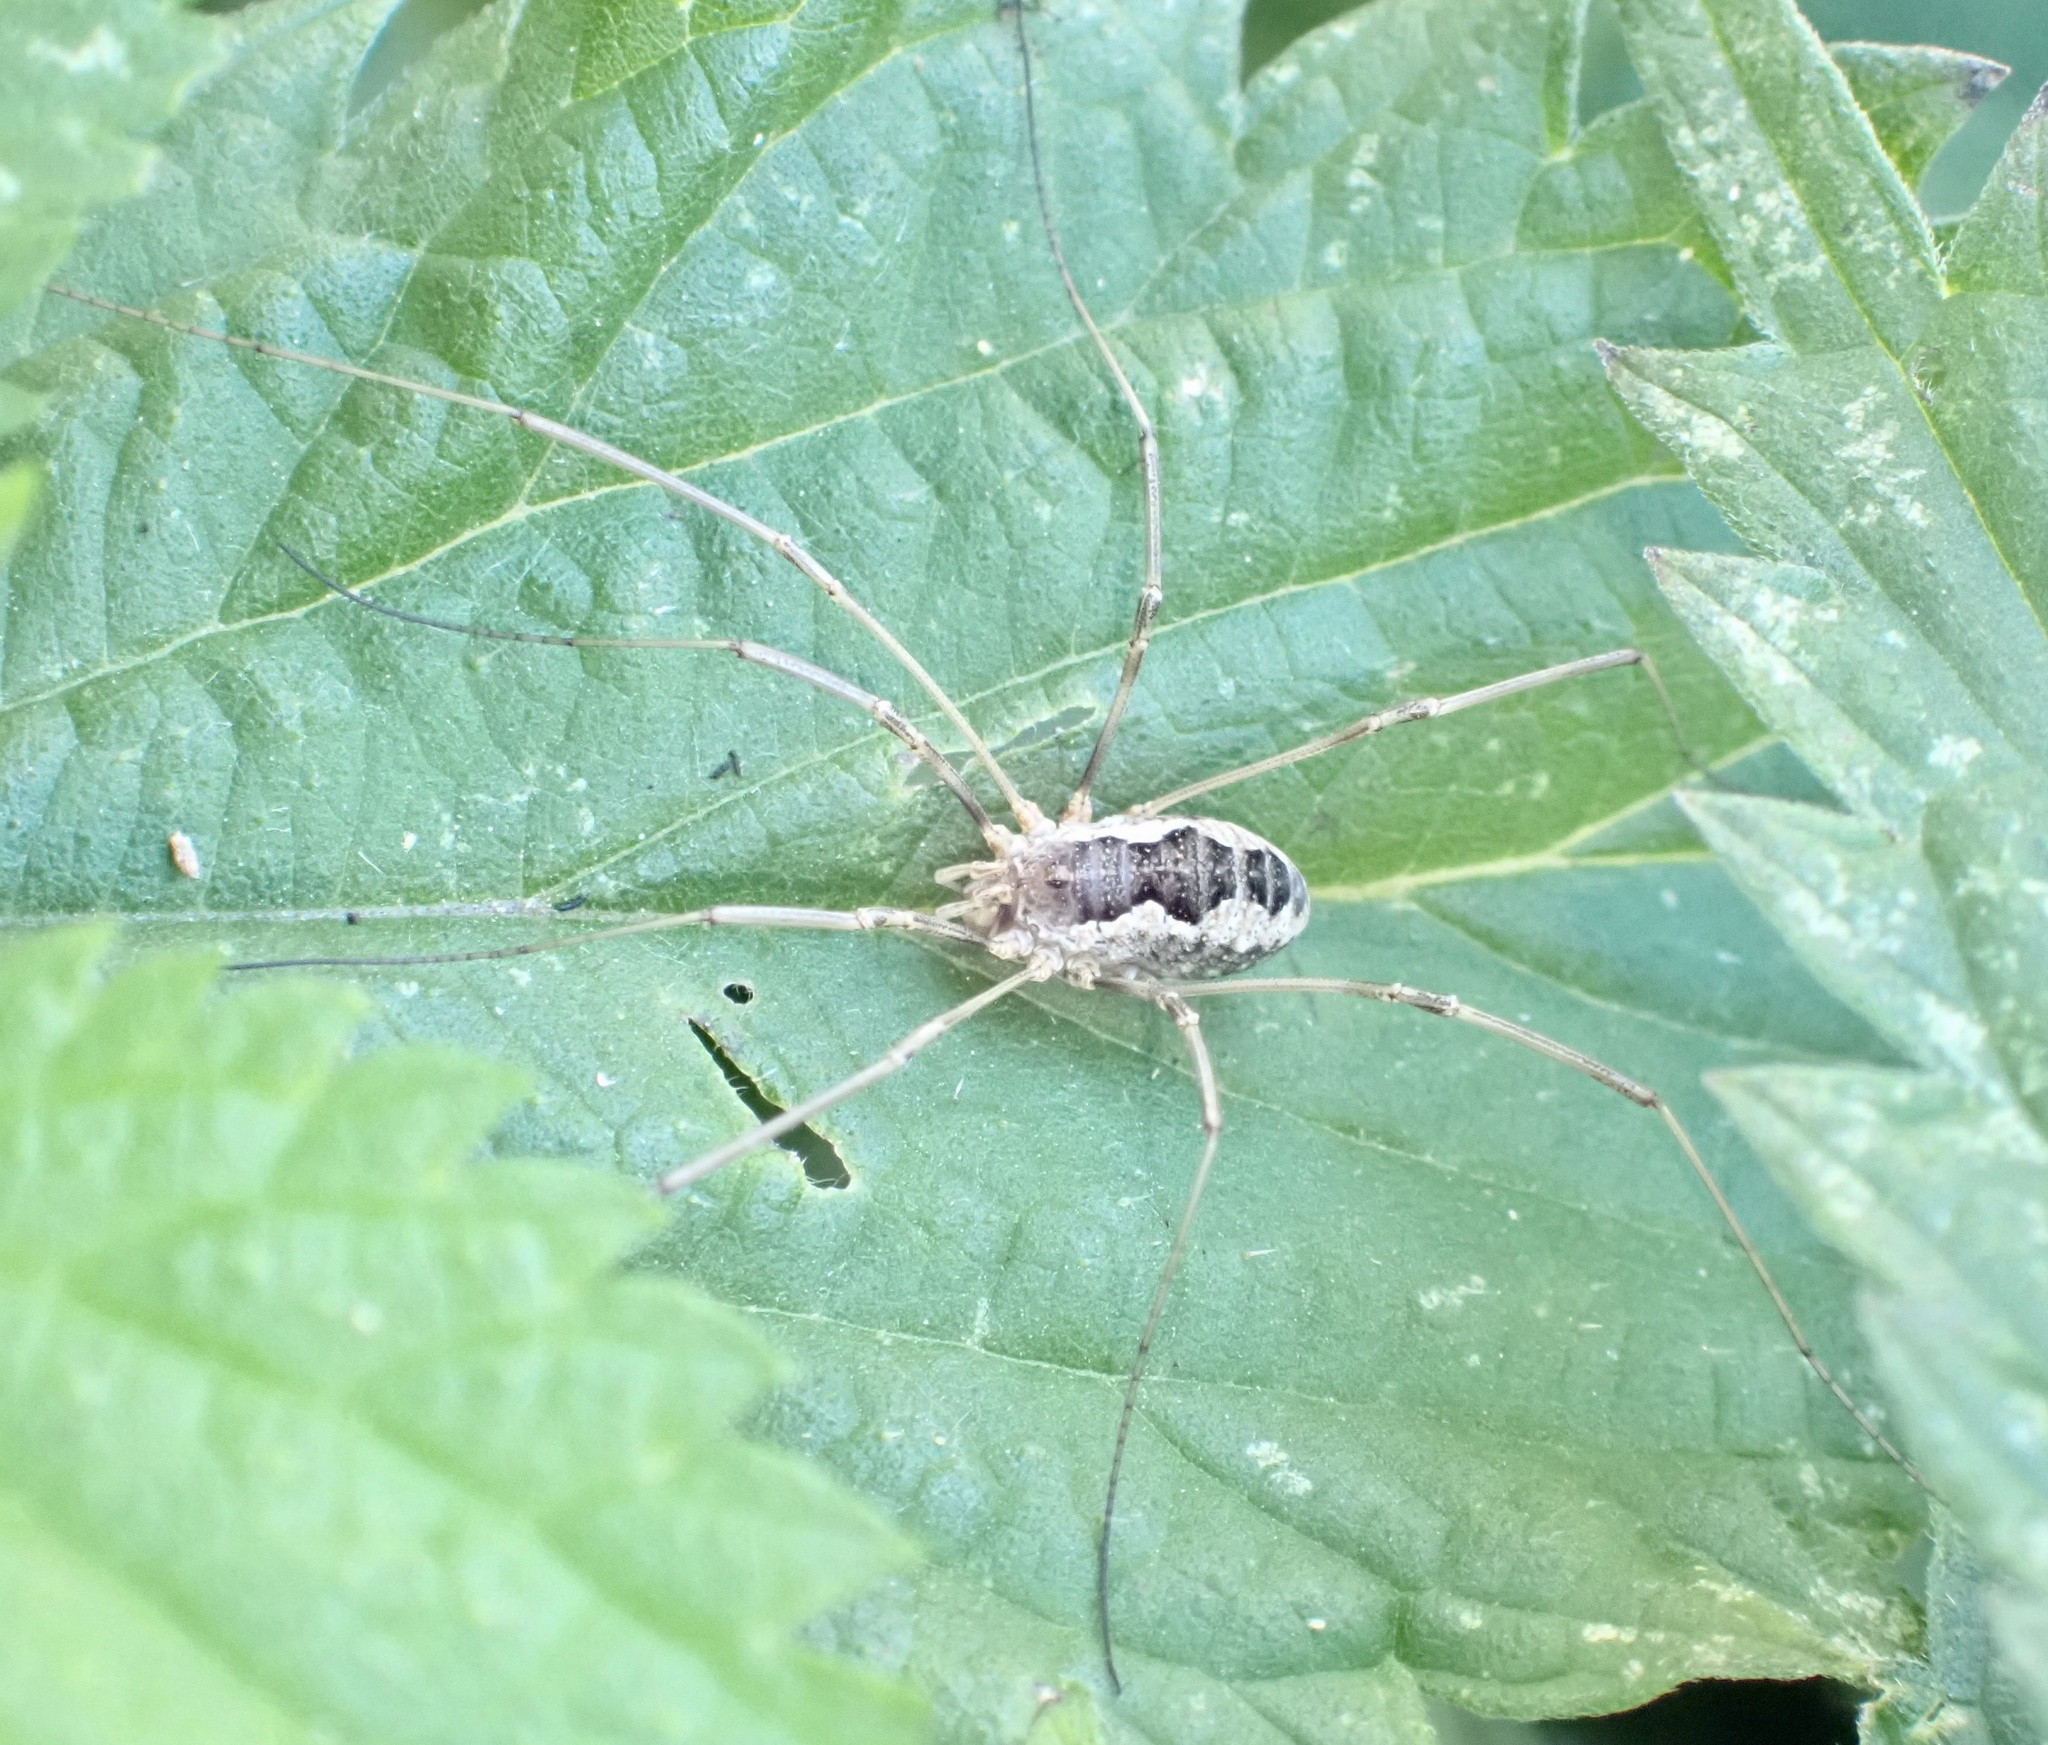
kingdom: Animalia
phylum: Arthropoda
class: Arachnida
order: Opiliones
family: Phalangiidae
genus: Phalangium
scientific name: Phalangium opilio
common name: Daddy longleg
